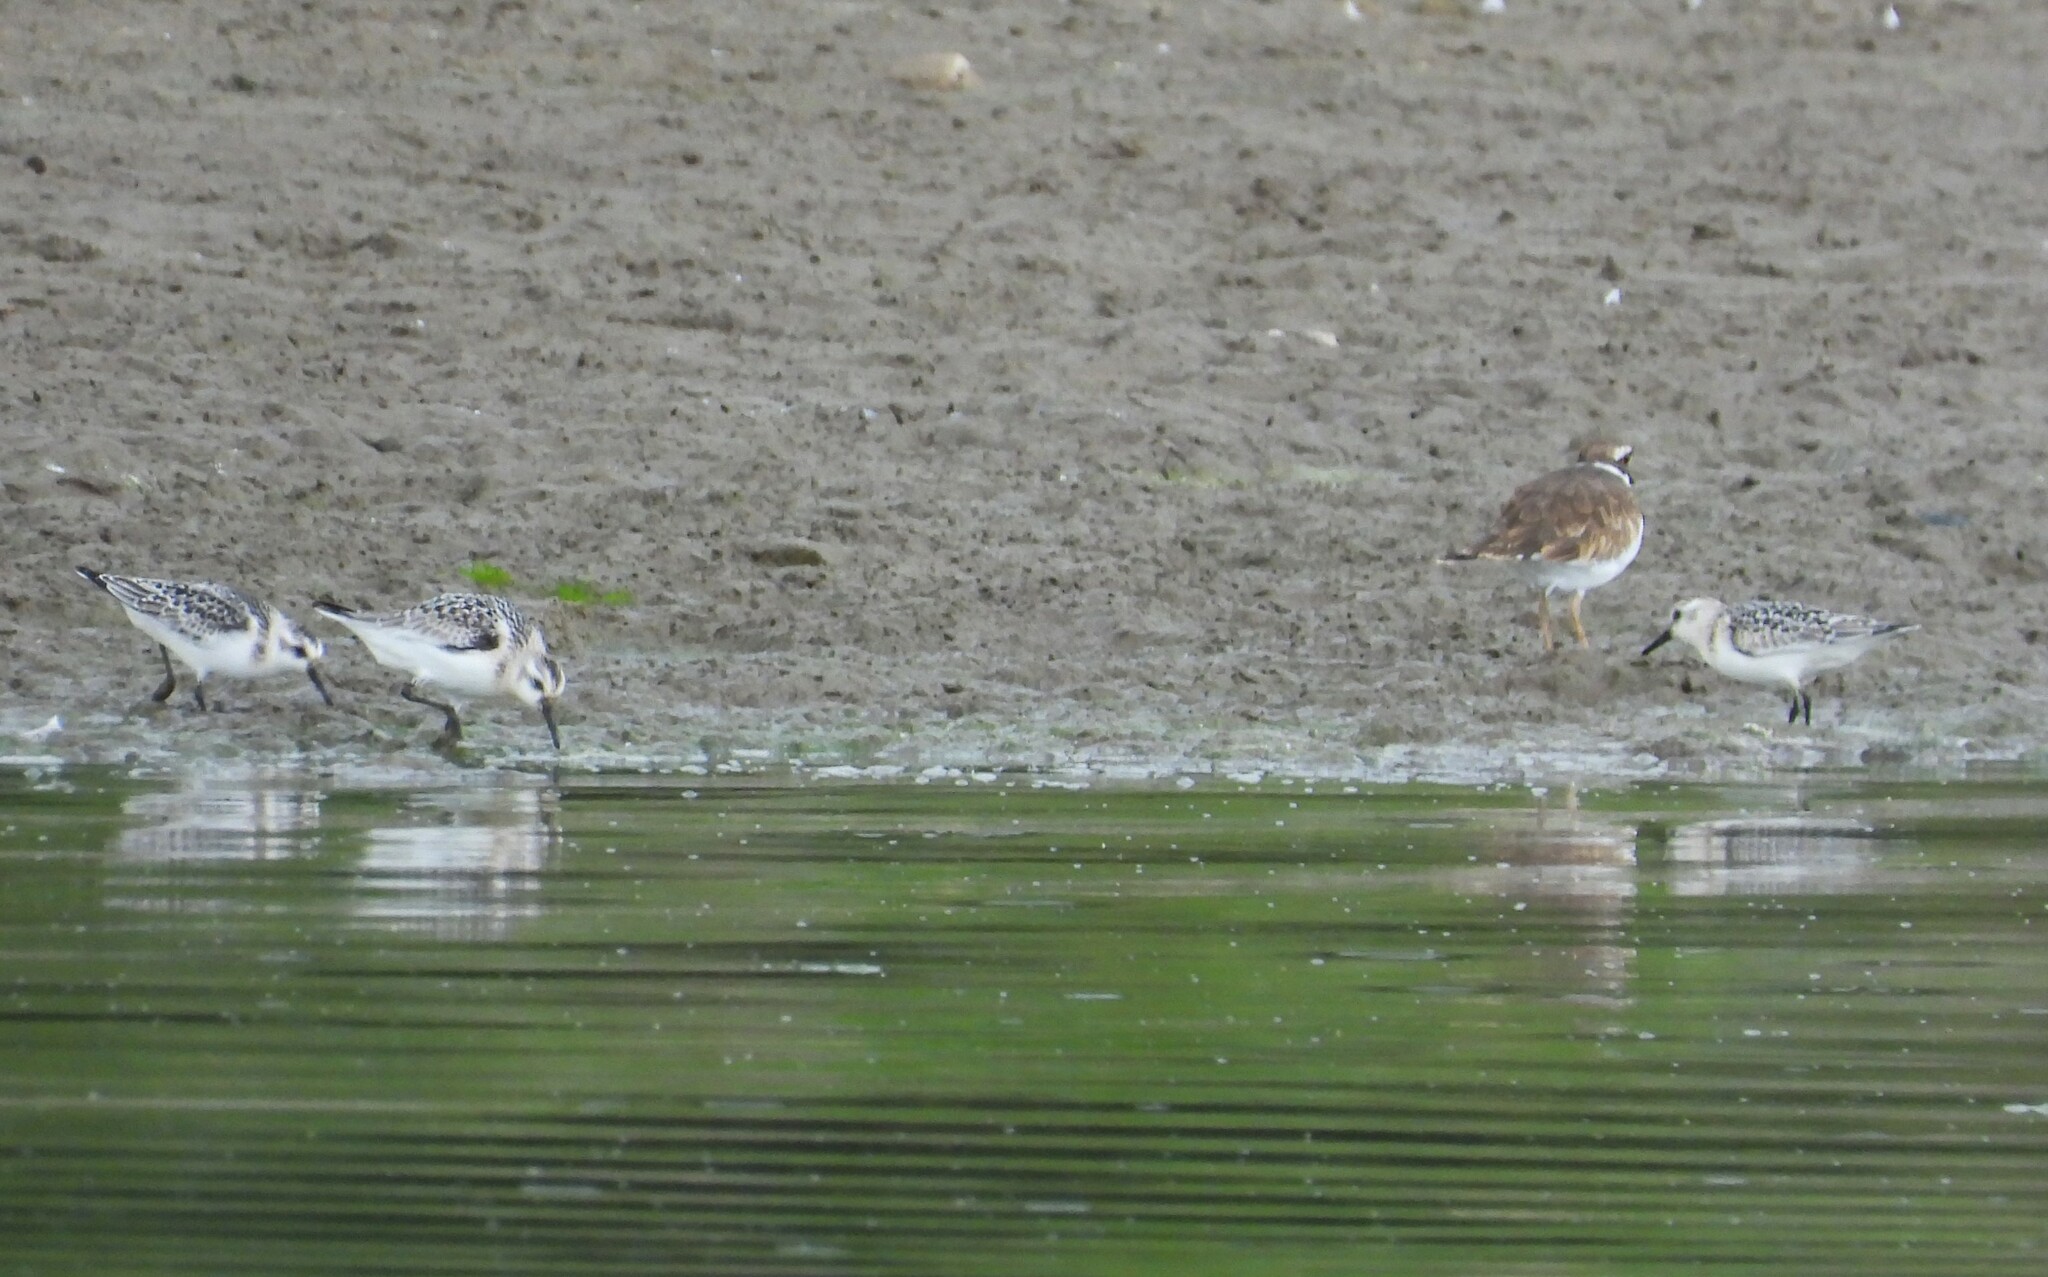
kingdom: Animalia
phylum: Chordata
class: Aves
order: Charadriiformes
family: Scolopacidae
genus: Calidris
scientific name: Calidris alba
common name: Sanderling
